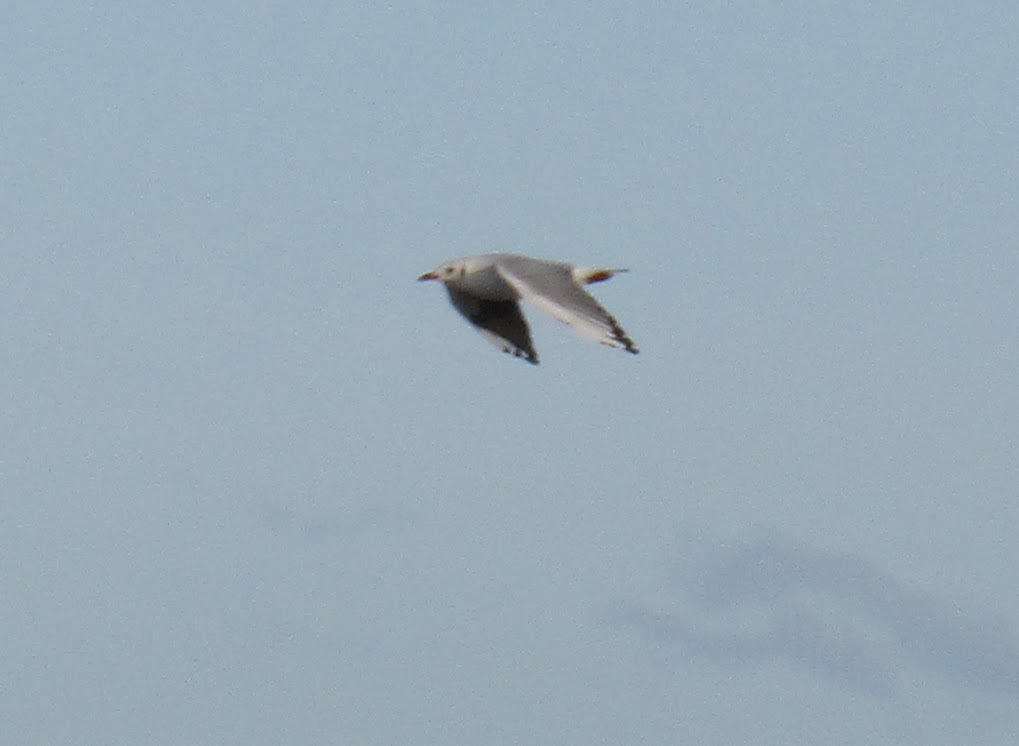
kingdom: Animalia
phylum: Chordata
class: Aves
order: Charadriiformes
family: Laridae
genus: Chroicocephalus
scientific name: Chroicocephalus maculipennis
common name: Brown-hooded gull
